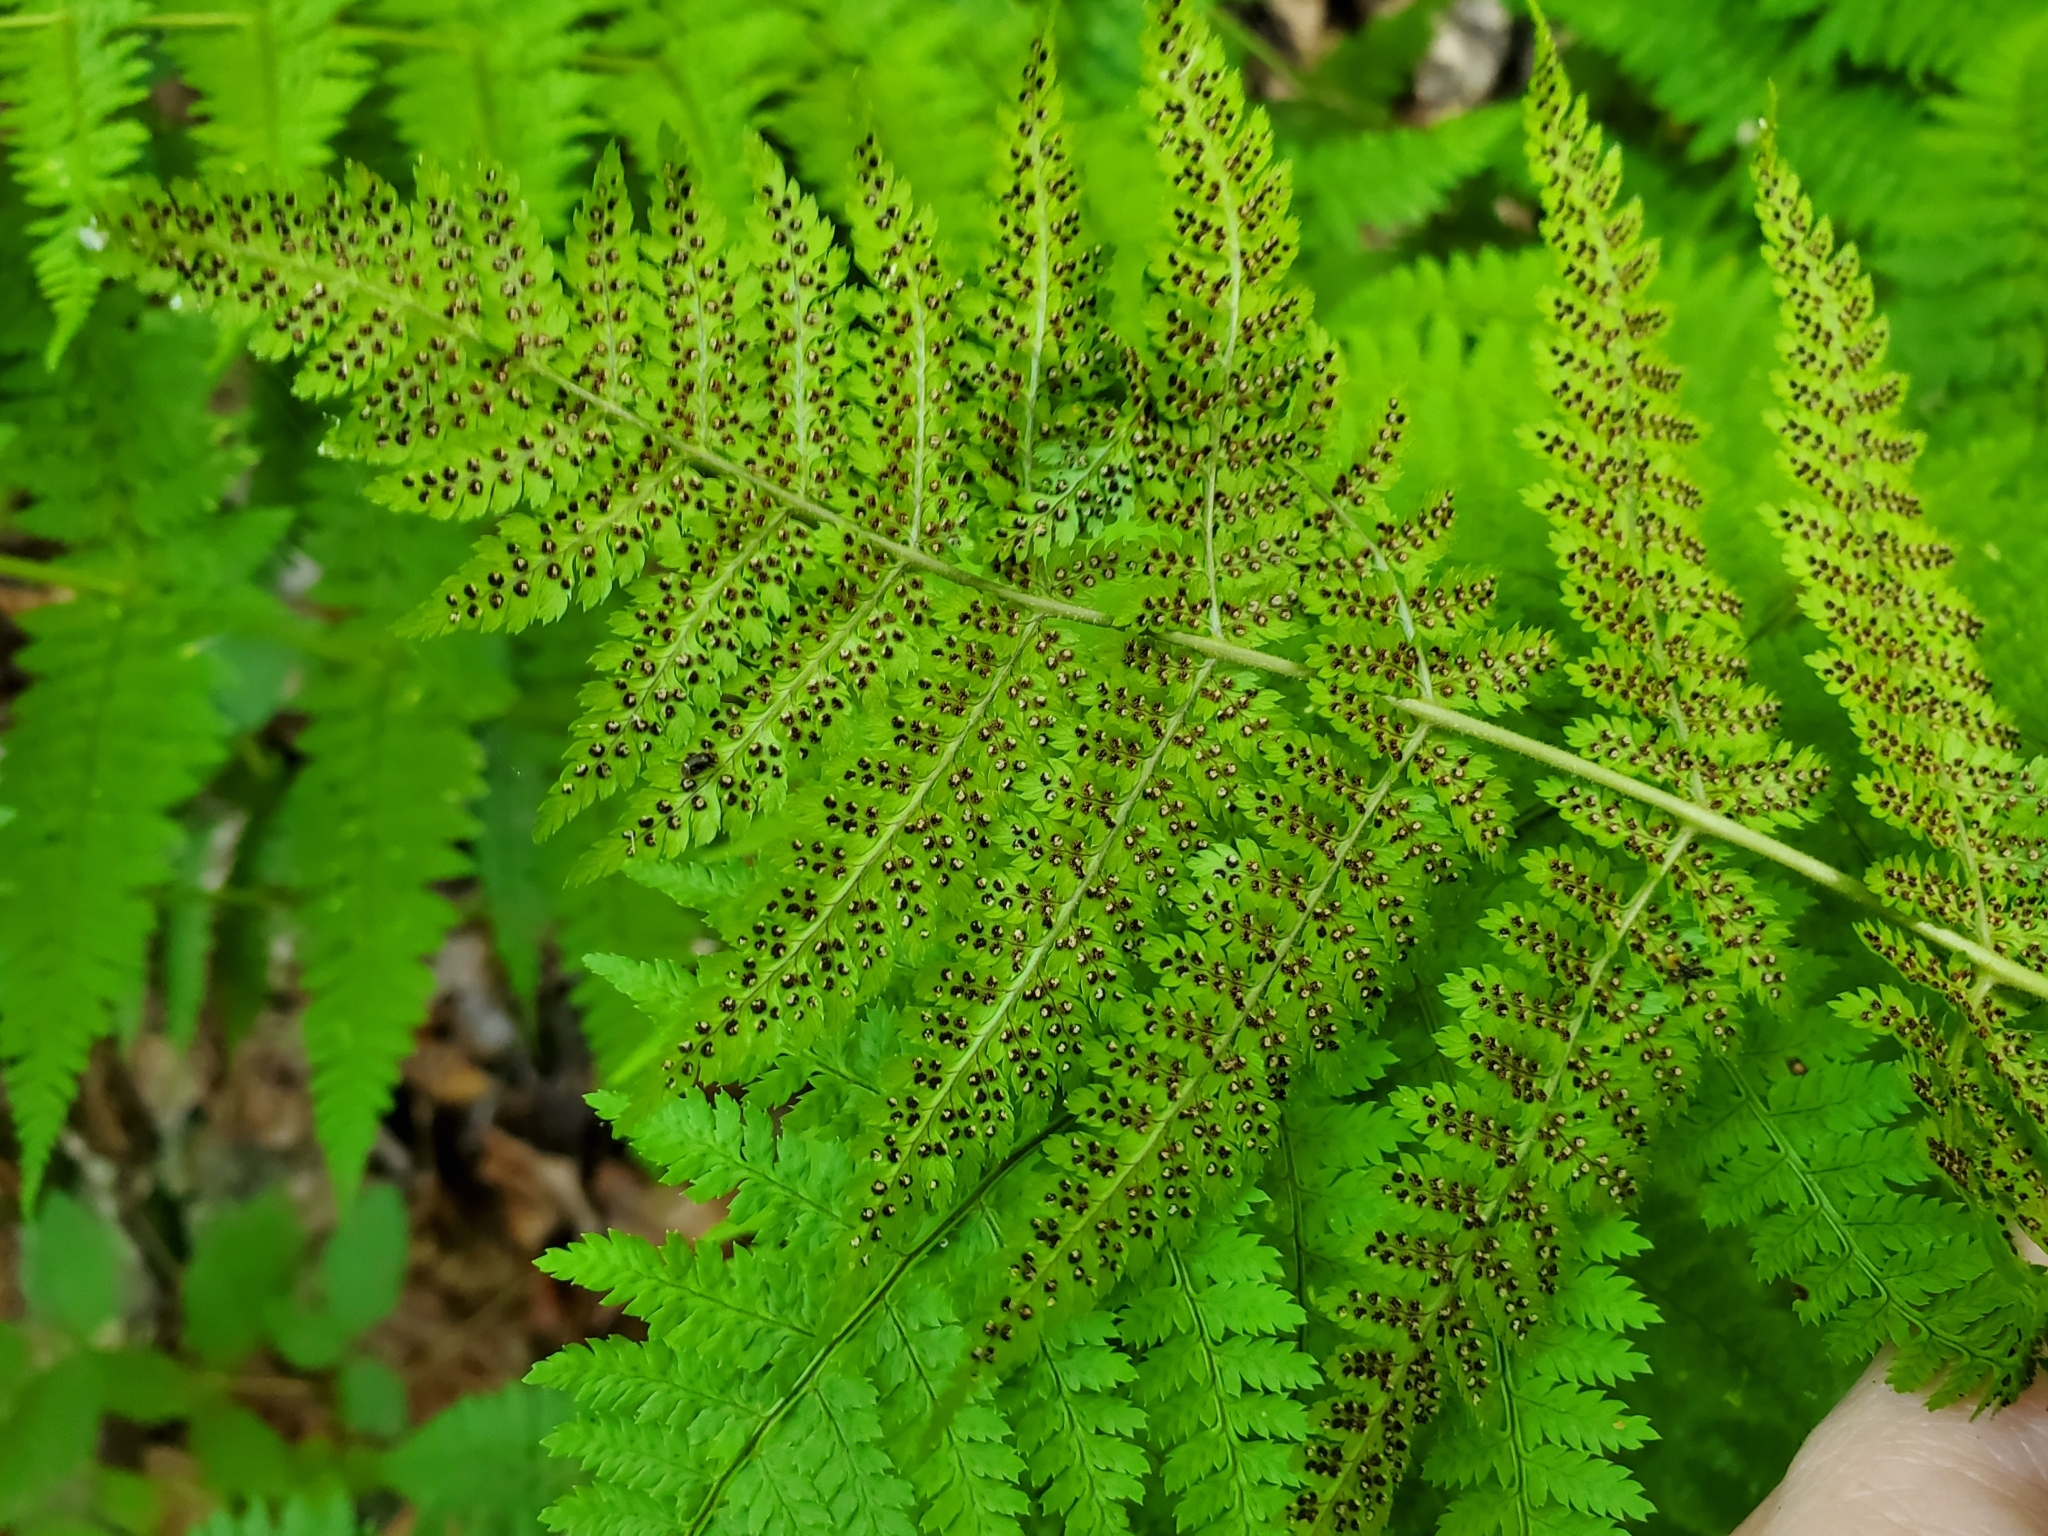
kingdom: Plantae
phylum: Tracheophyta
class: Polypodiopsida
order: Polypodiales
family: Dryopteridaceae
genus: Dryopteris
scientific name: Dryopteris intermedia
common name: Evergreen wood fern
